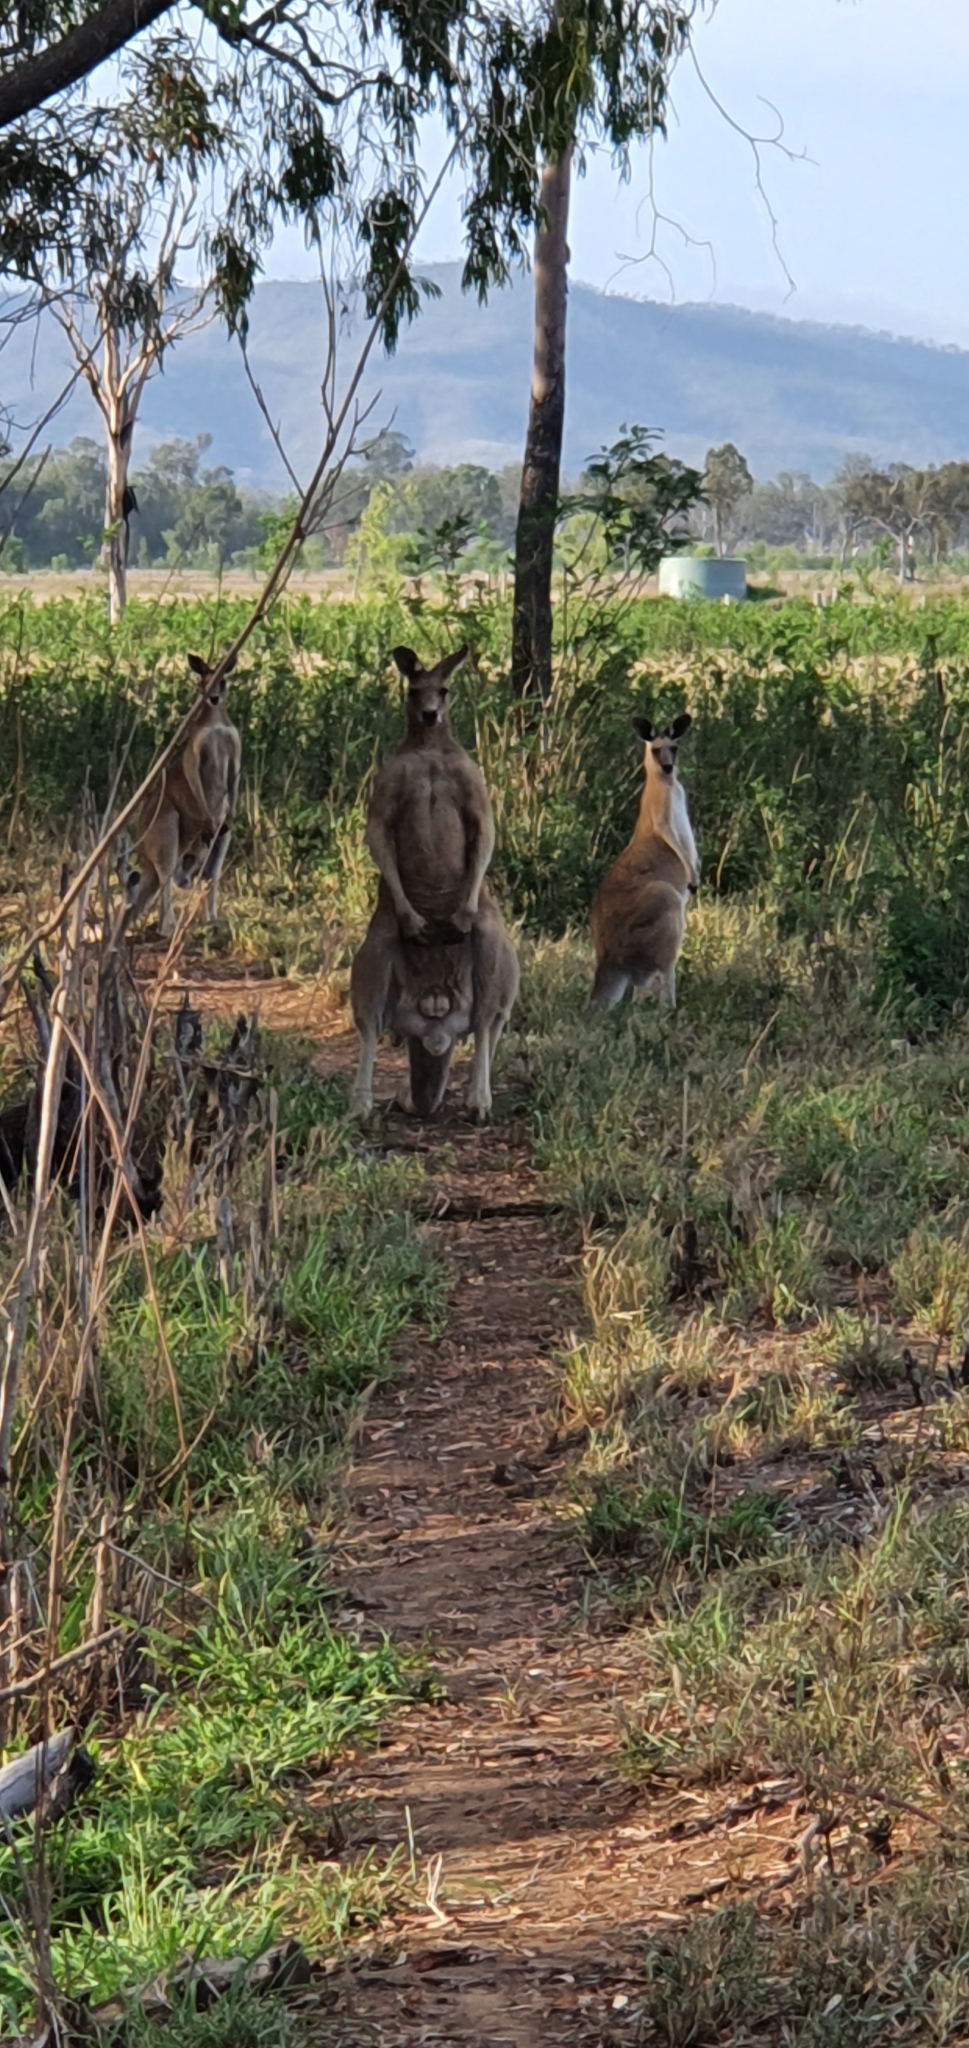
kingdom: Animalia
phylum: Chordata
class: Mammalia
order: Diprotodontia
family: Macropodidae
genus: Macropus
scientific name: Macropus giganteus
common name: Eastern grey kangaroo
